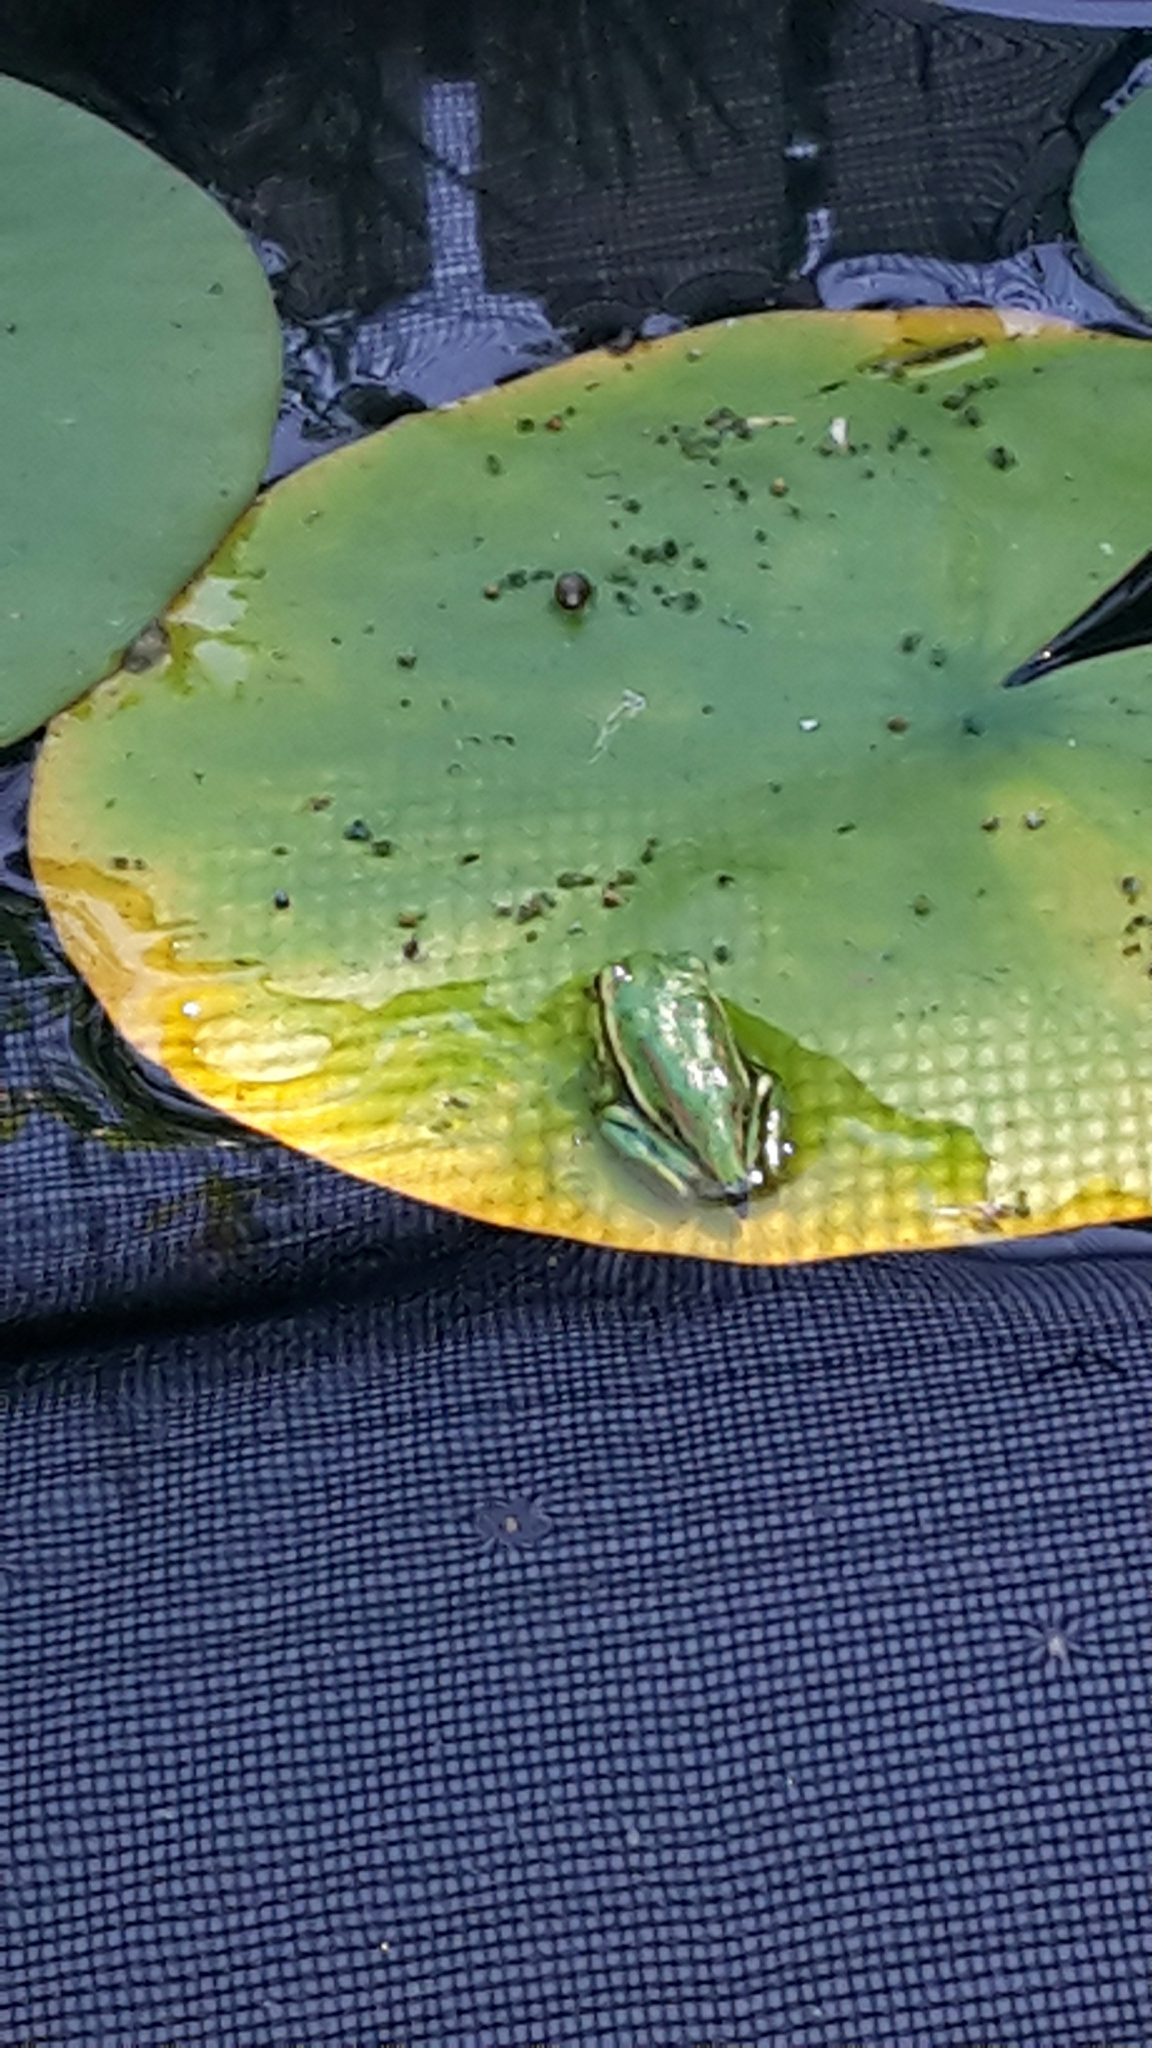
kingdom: Animalia
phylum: Chordata
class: Amphibia
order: Anura
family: Pelodryadidae
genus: Ranoidea
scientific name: Ranoidea aurea
